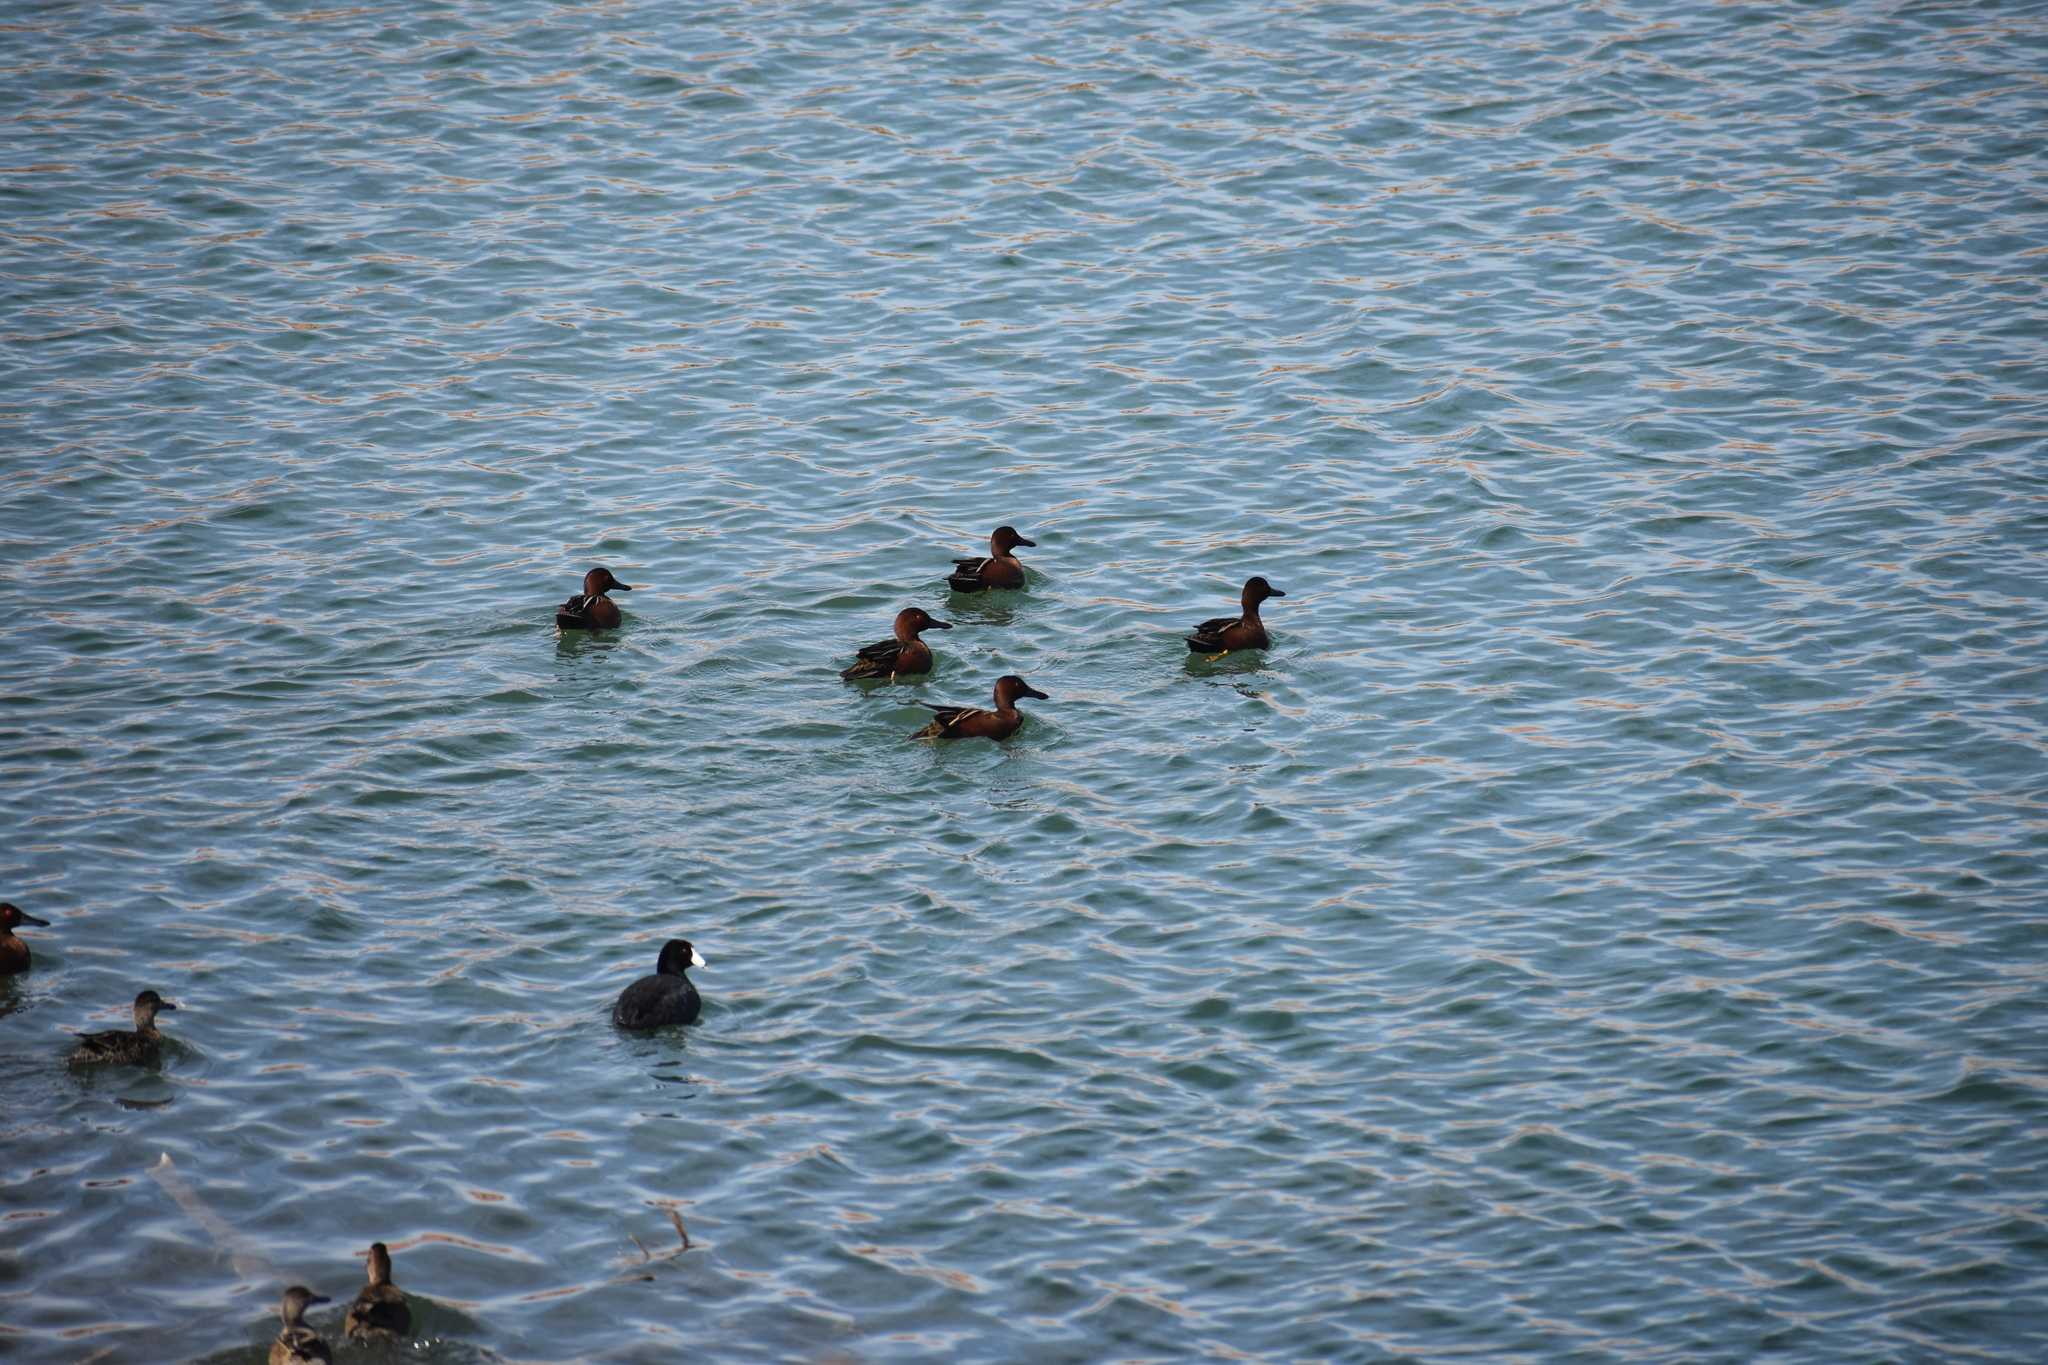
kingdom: Animalia
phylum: Chordata
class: Aves
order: Anseriformes
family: Anatidae
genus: Spatula
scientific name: Spatula cyanoptera
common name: Cinnamon teal
